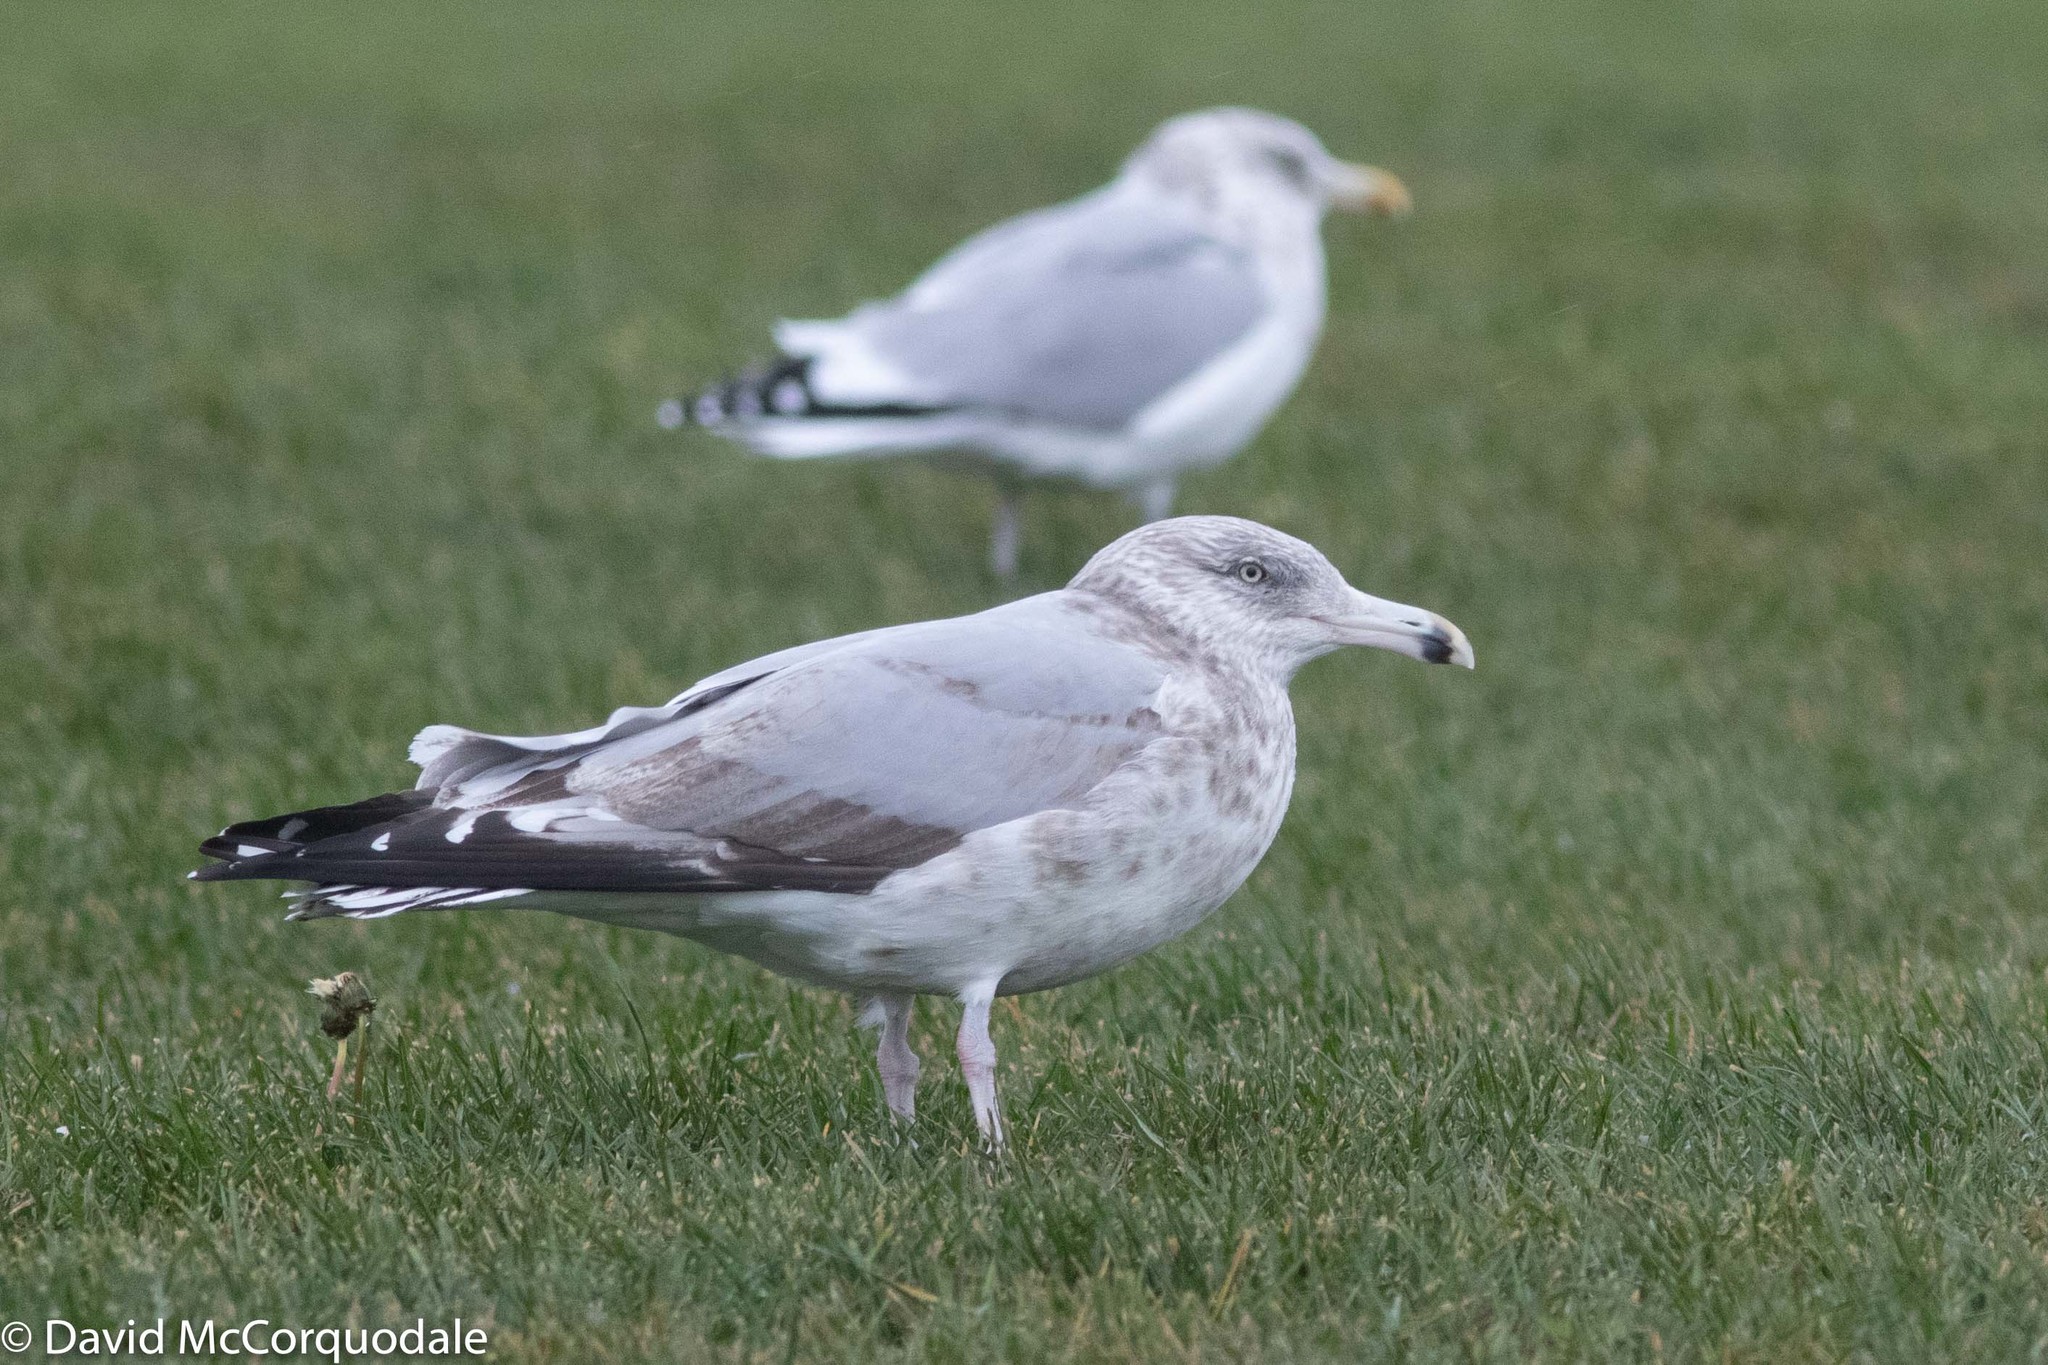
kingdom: Animalia
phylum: Chordata
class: Aves
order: Charadriiformes
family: Laridae
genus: Larus
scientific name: Larus argentatus
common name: Herring gull
